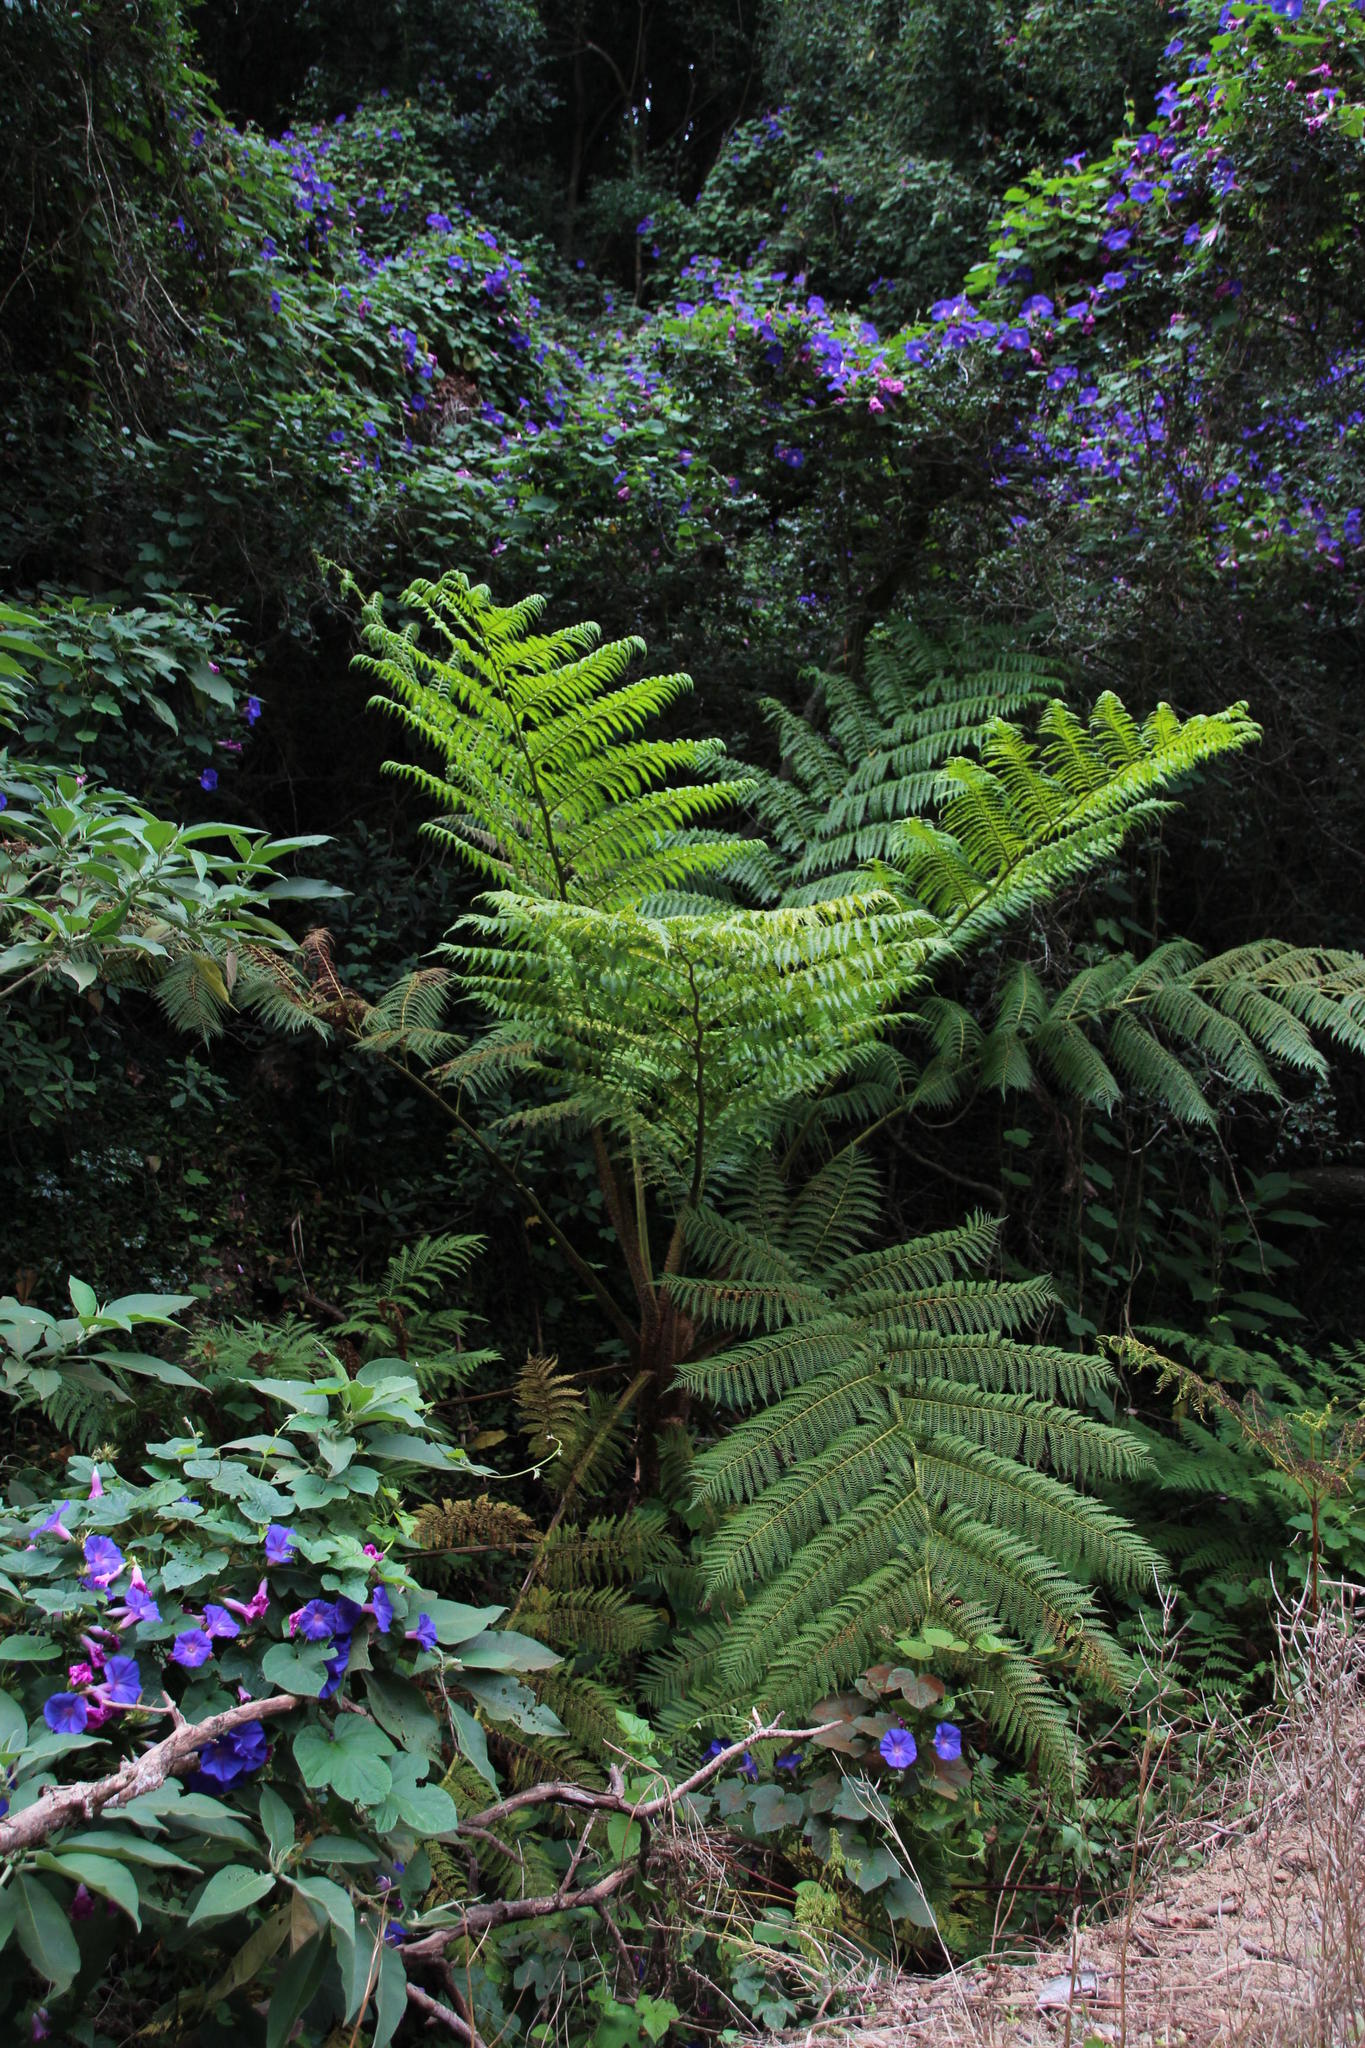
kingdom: Plantae
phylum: Tracheophyta
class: Polypodiopsida
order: Cyatheales
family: Cyatheaceae
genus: Sphaeropteris
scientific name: Sphaeropteris cooperi
